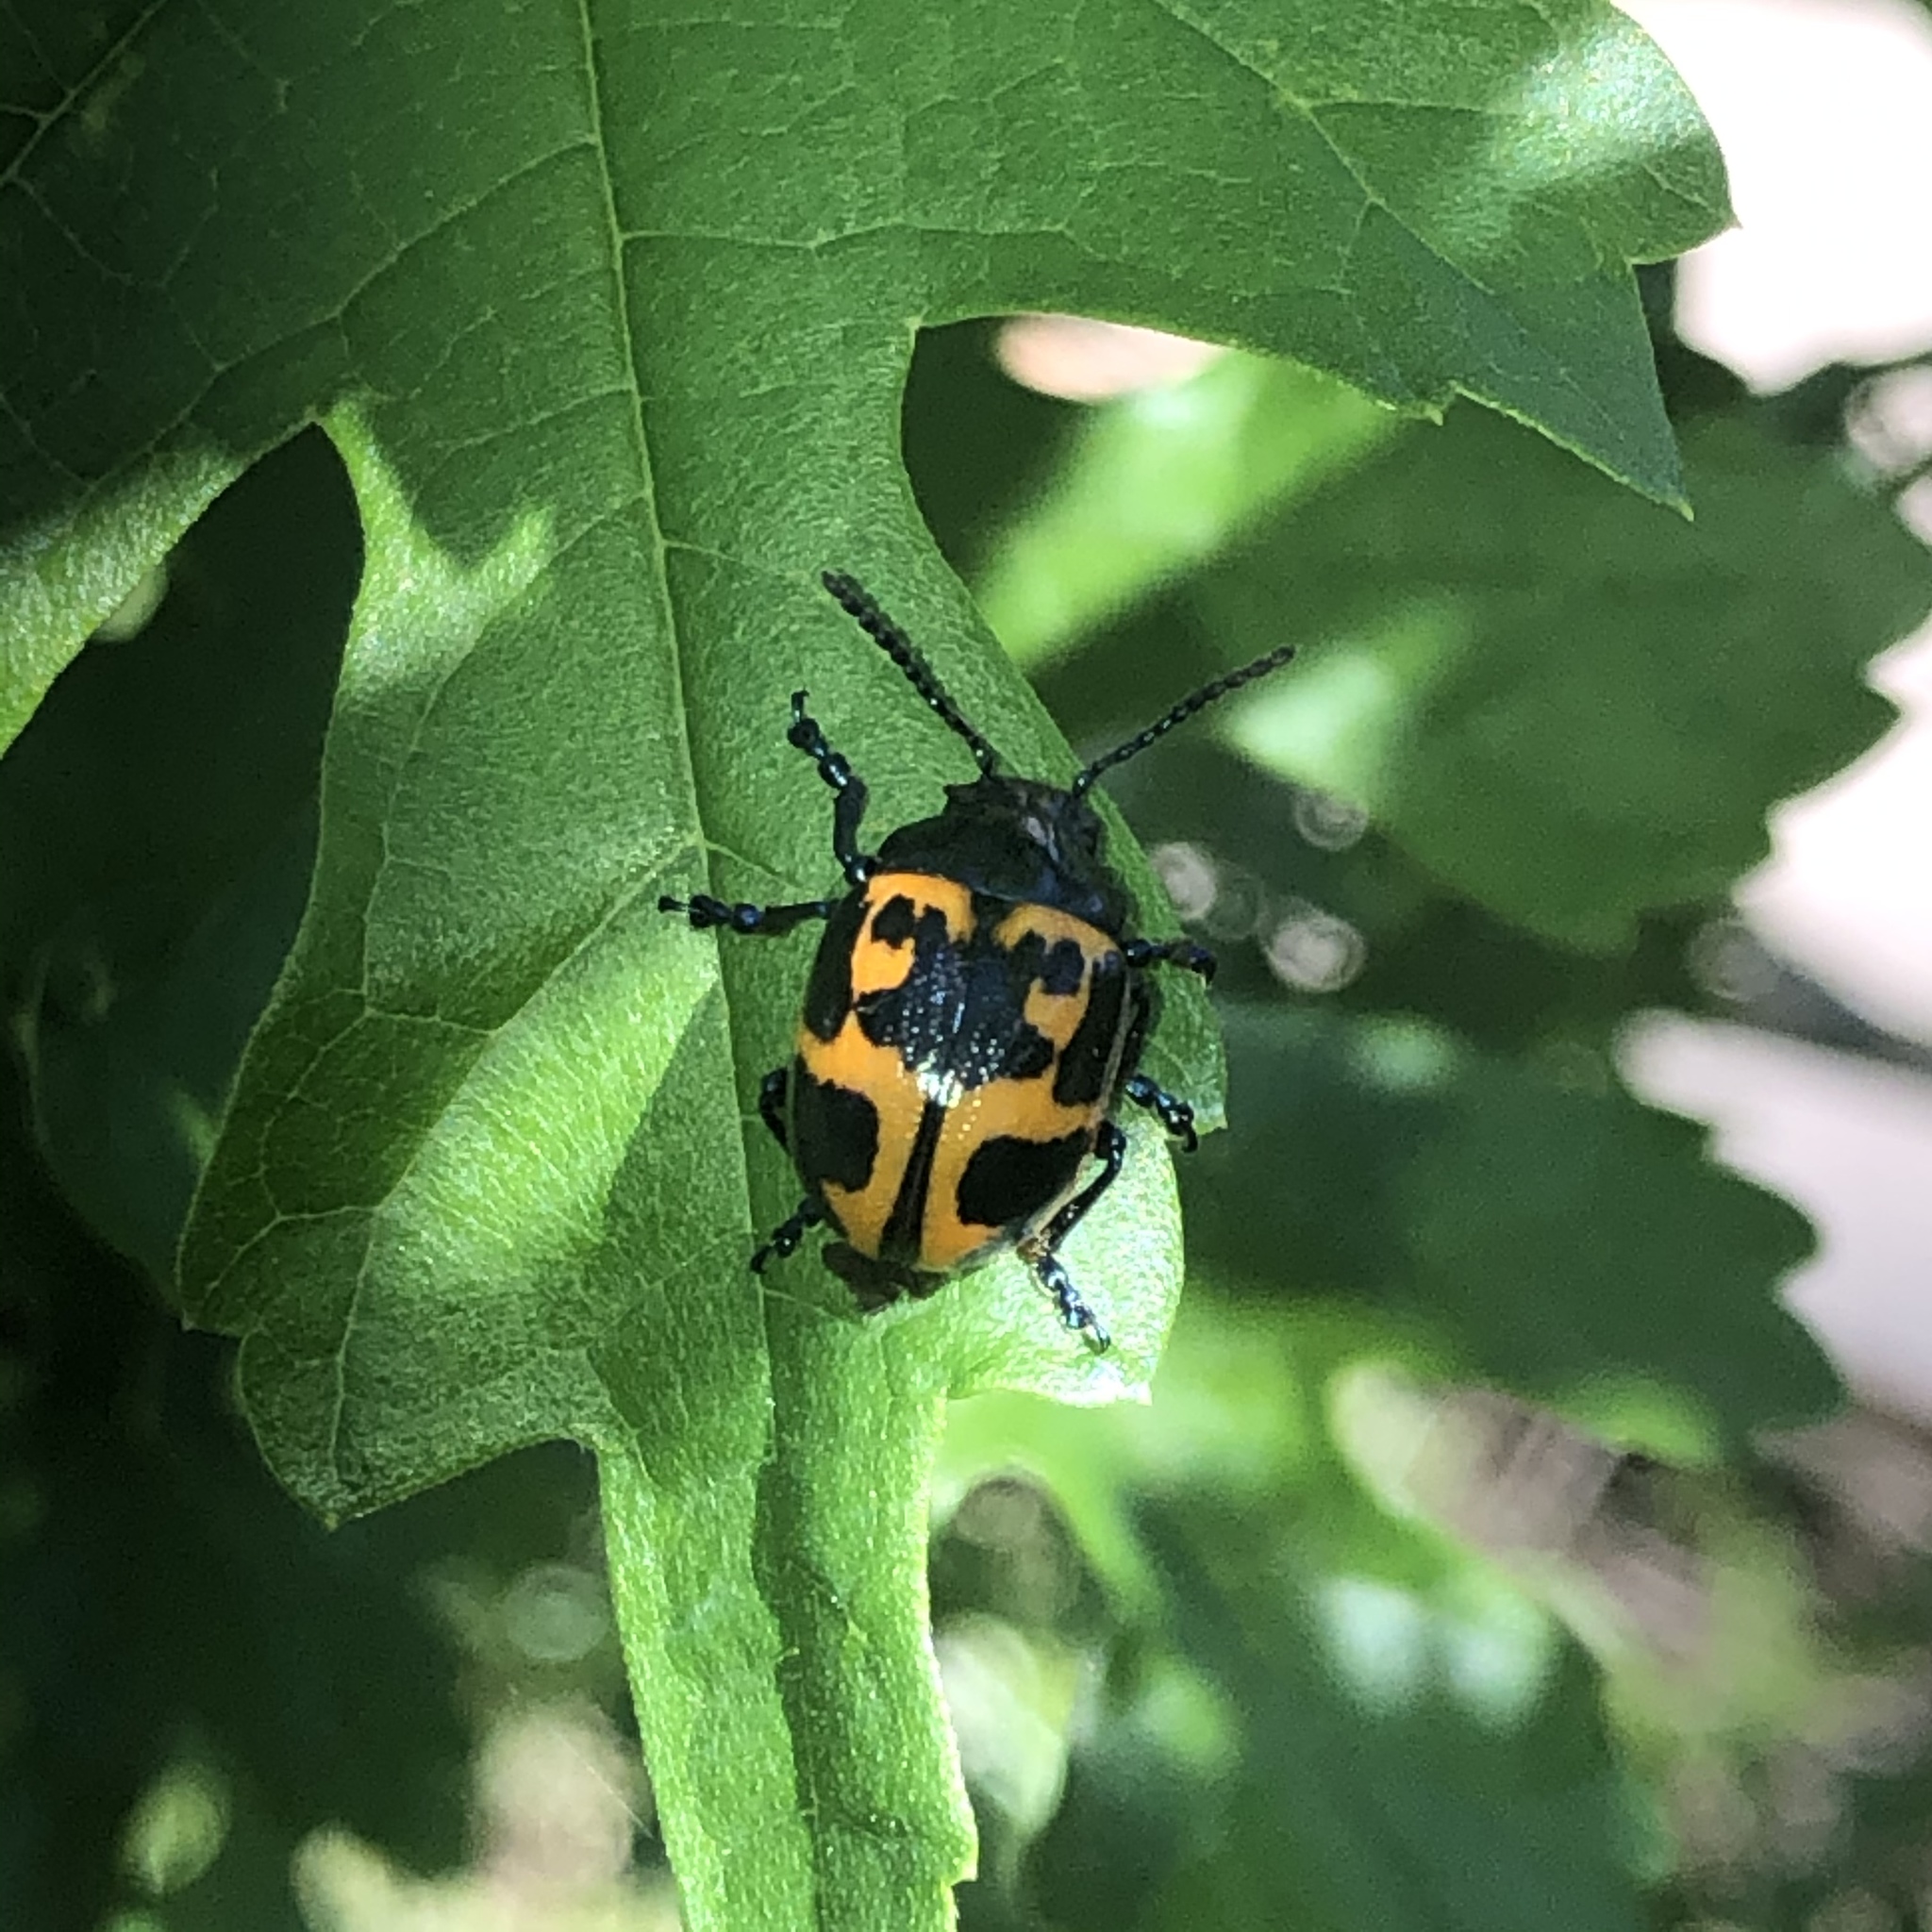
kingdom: Animalia
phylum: Arthropoda
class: Insecta
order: Coleoptera
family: Chrysomelidae
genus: Labidomera
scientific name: Labidomera clivicollis
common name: Swamp milkweed leaf beetle
